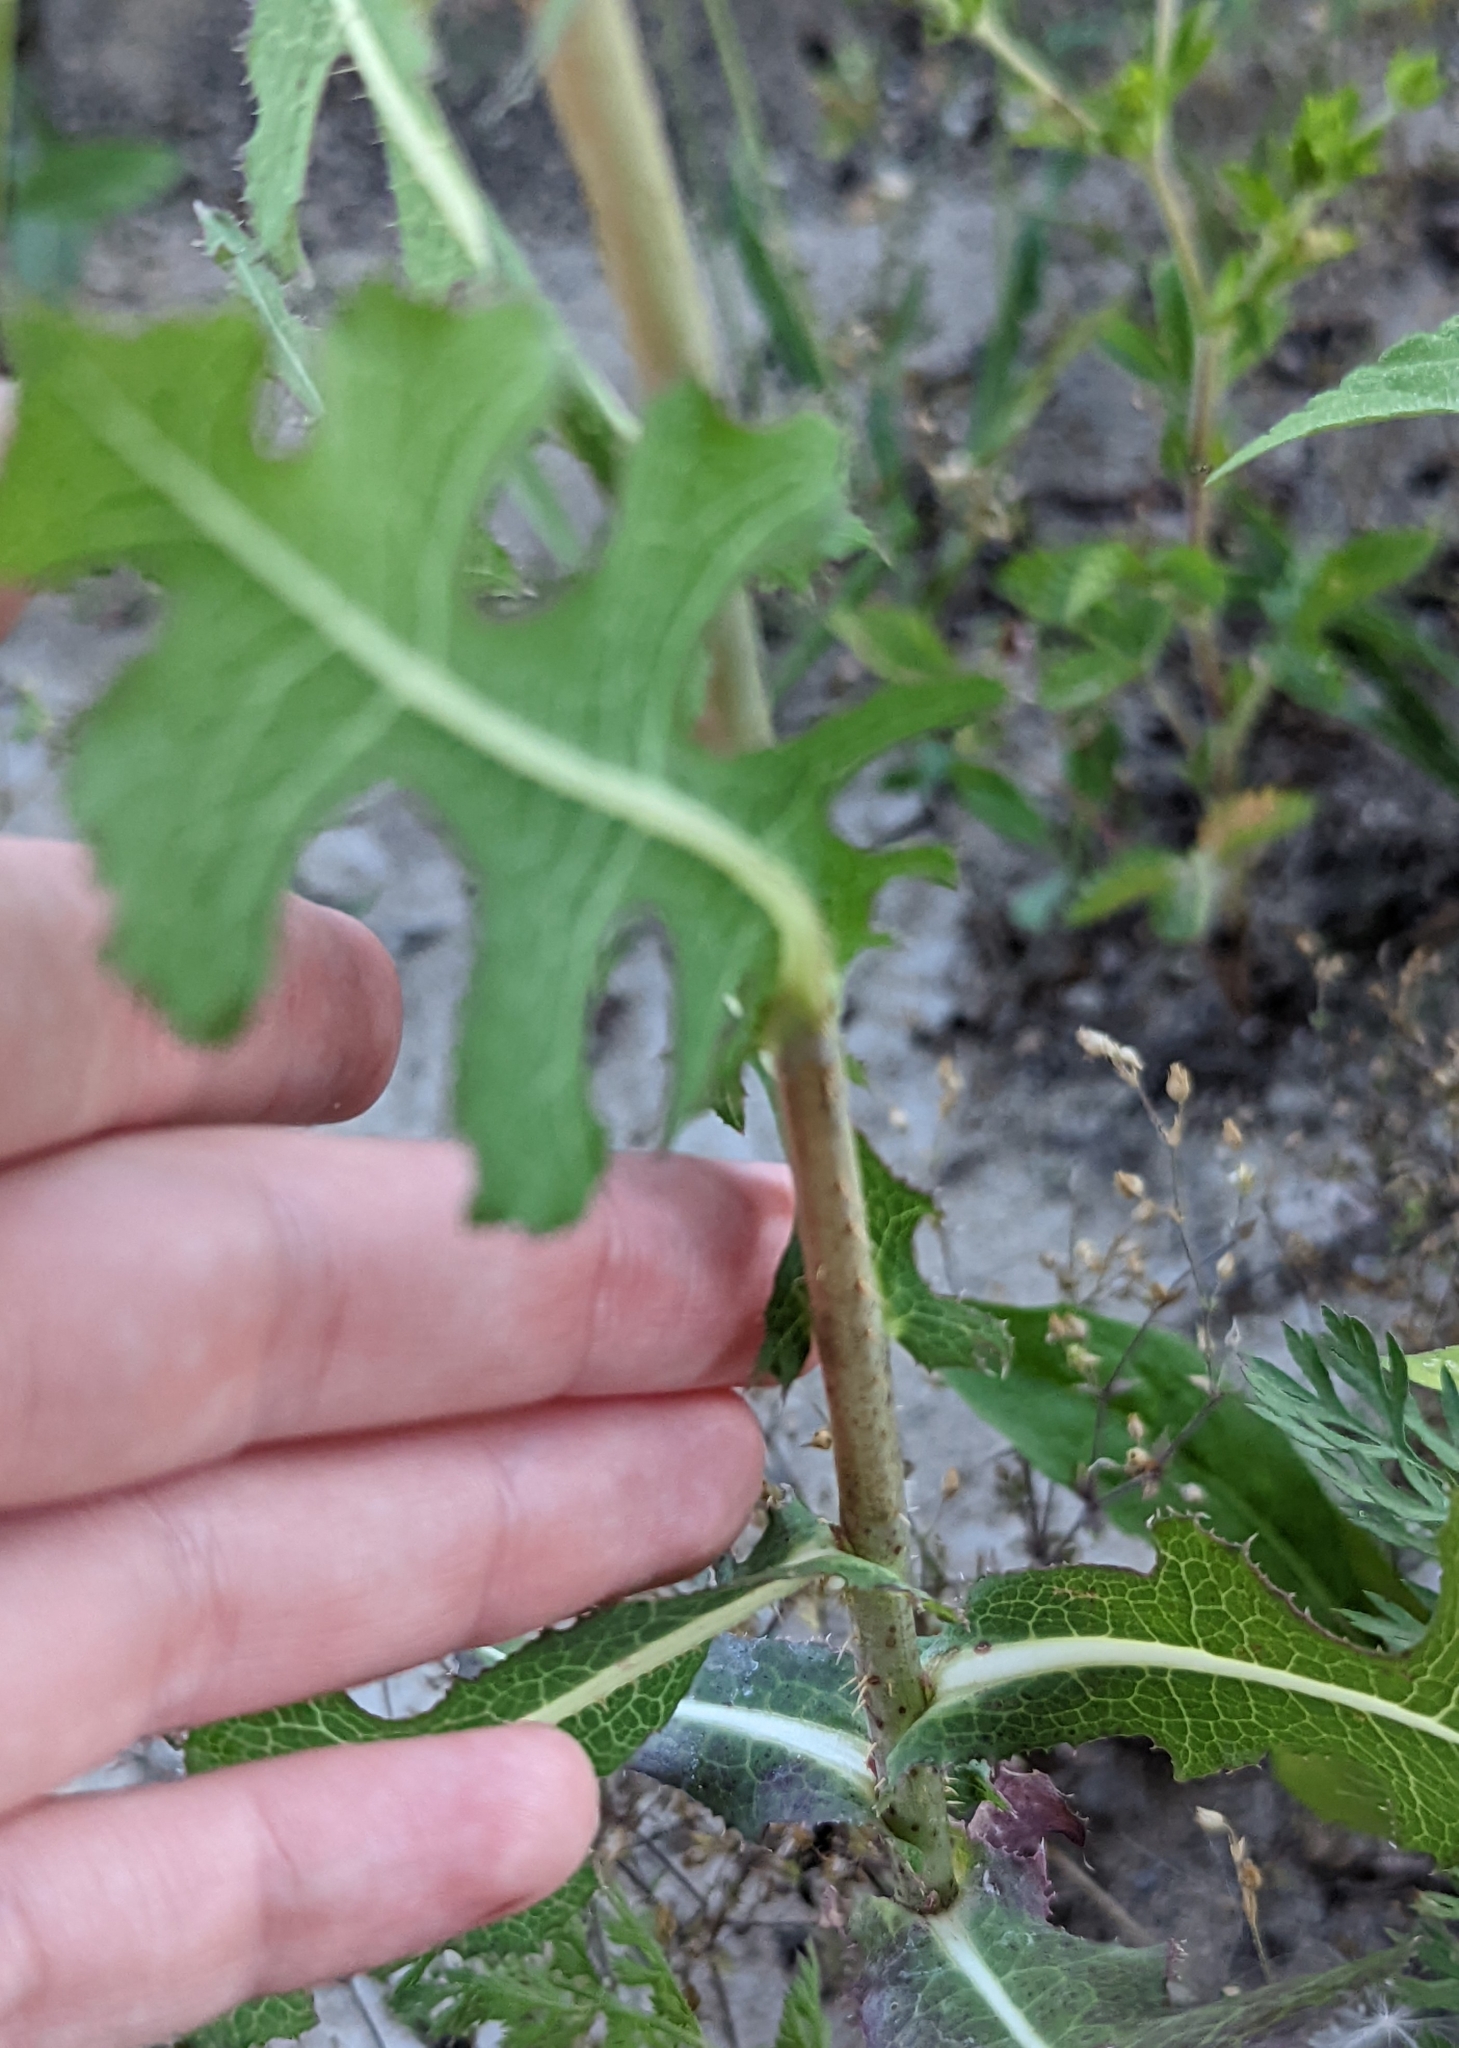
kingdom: Plantae
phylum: Tracheophyta
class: Magnoliopsida
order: Asterales
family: Asteraceae
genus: Lactuca
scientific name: Lactuca serriola
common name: Prickly lettuce
